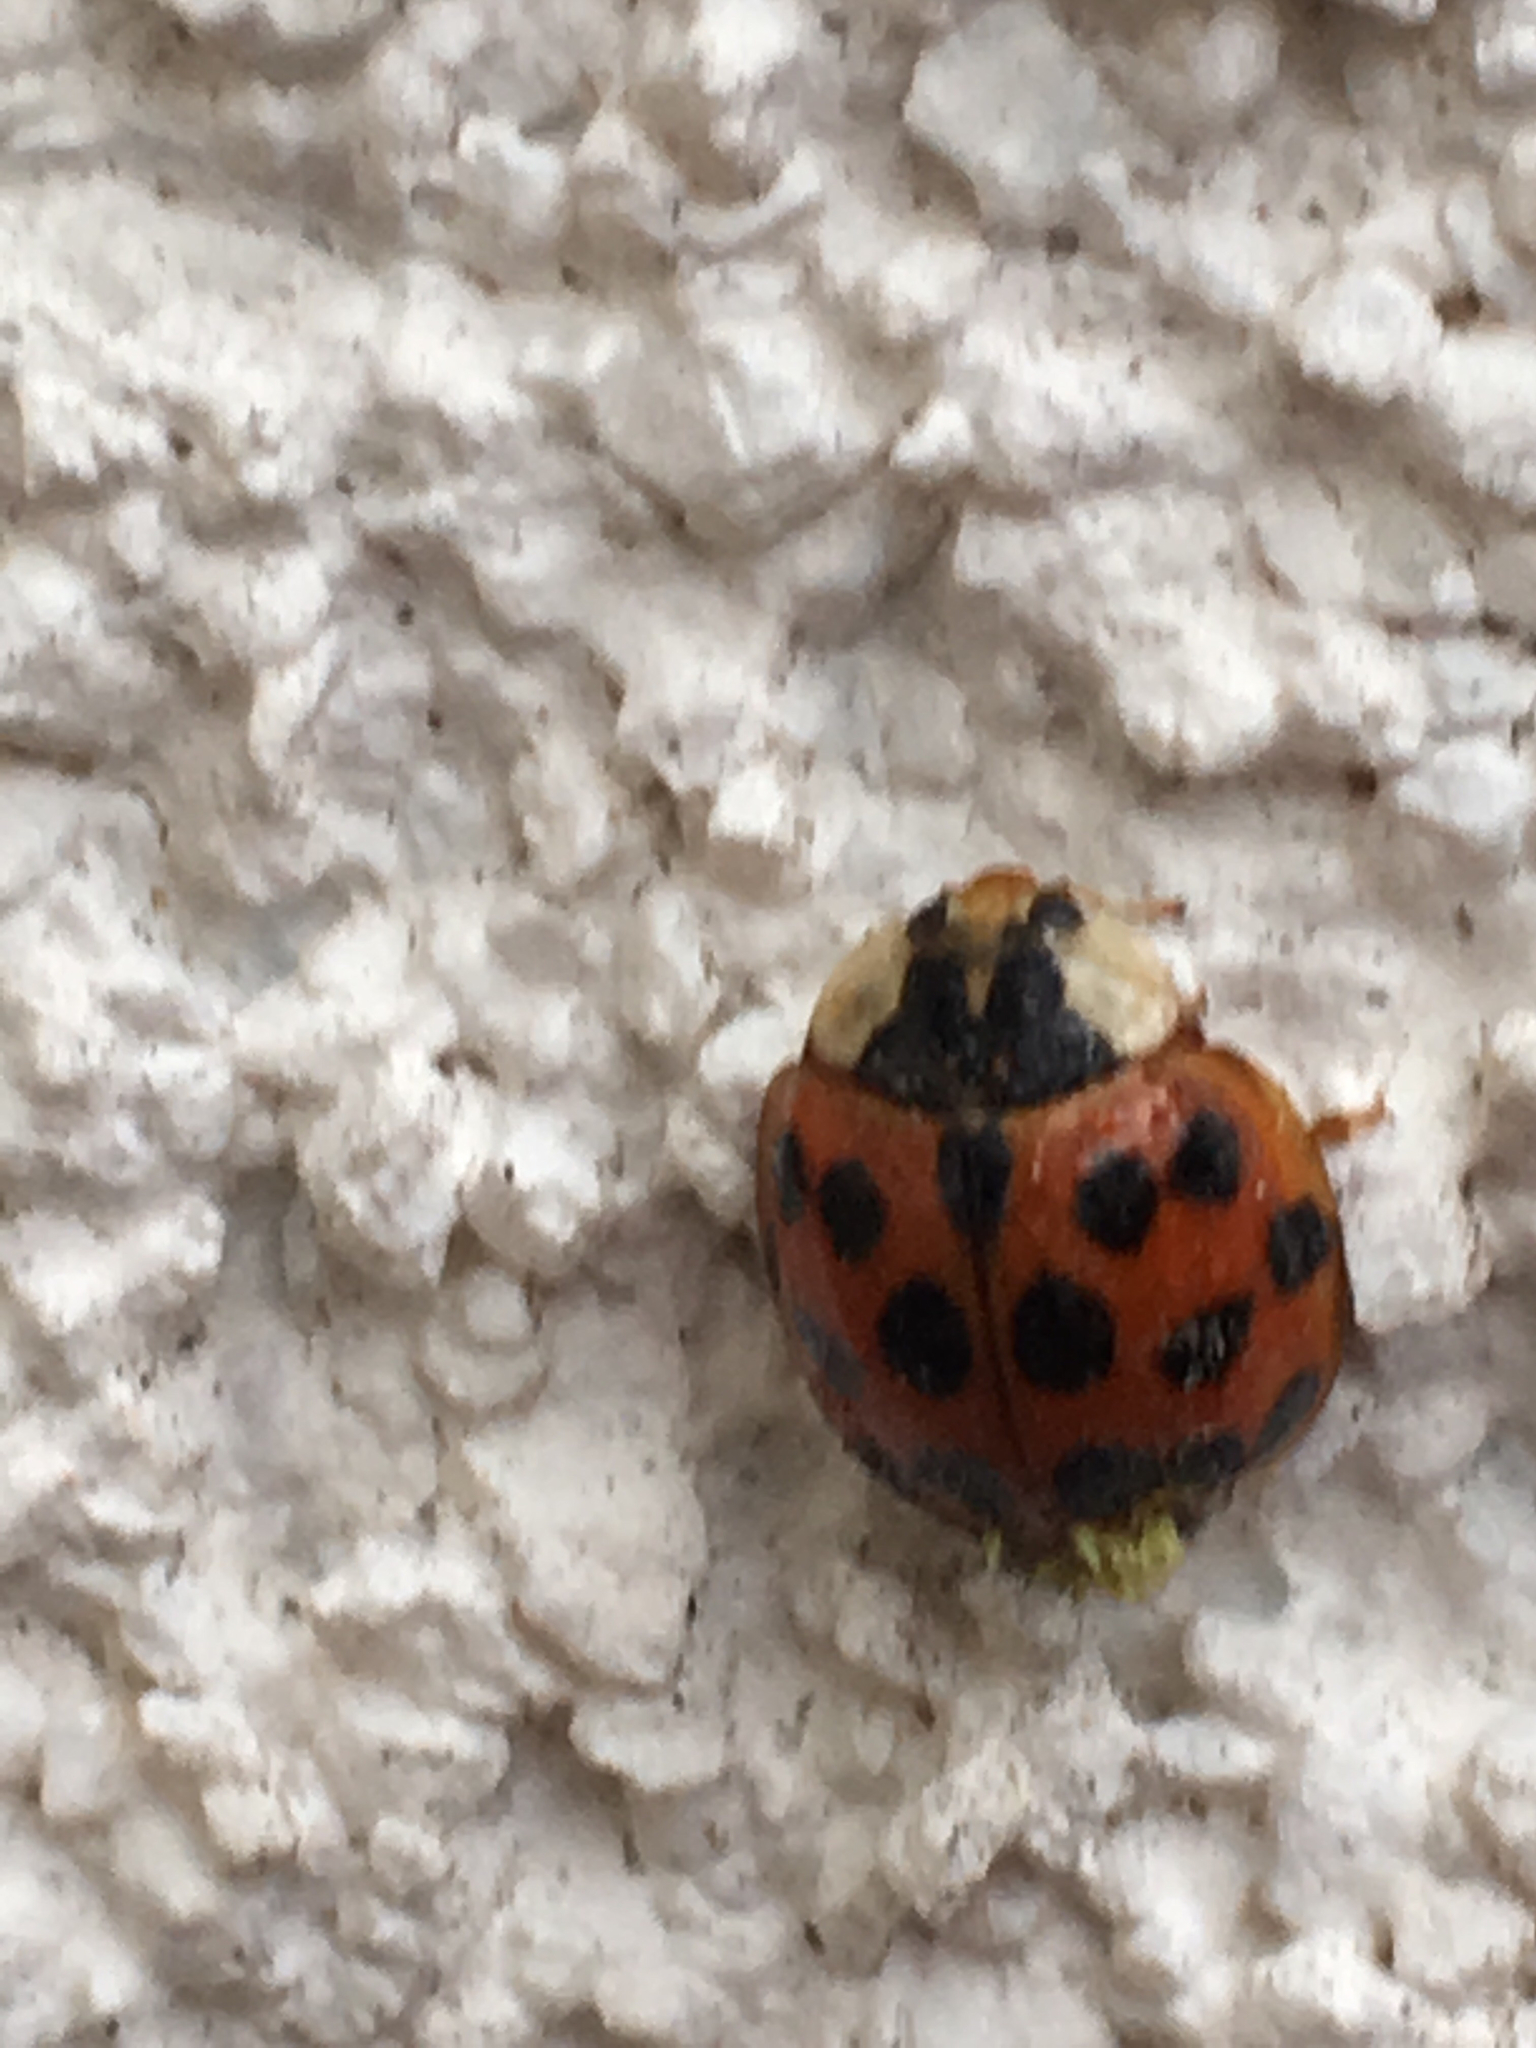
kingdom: Animalia
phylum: Arthropoda
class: Insecta
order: Coleoptera
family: Coccinellidae
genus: Harmonia
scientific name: Harmonia axyridis
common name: Harlequin ladybird
